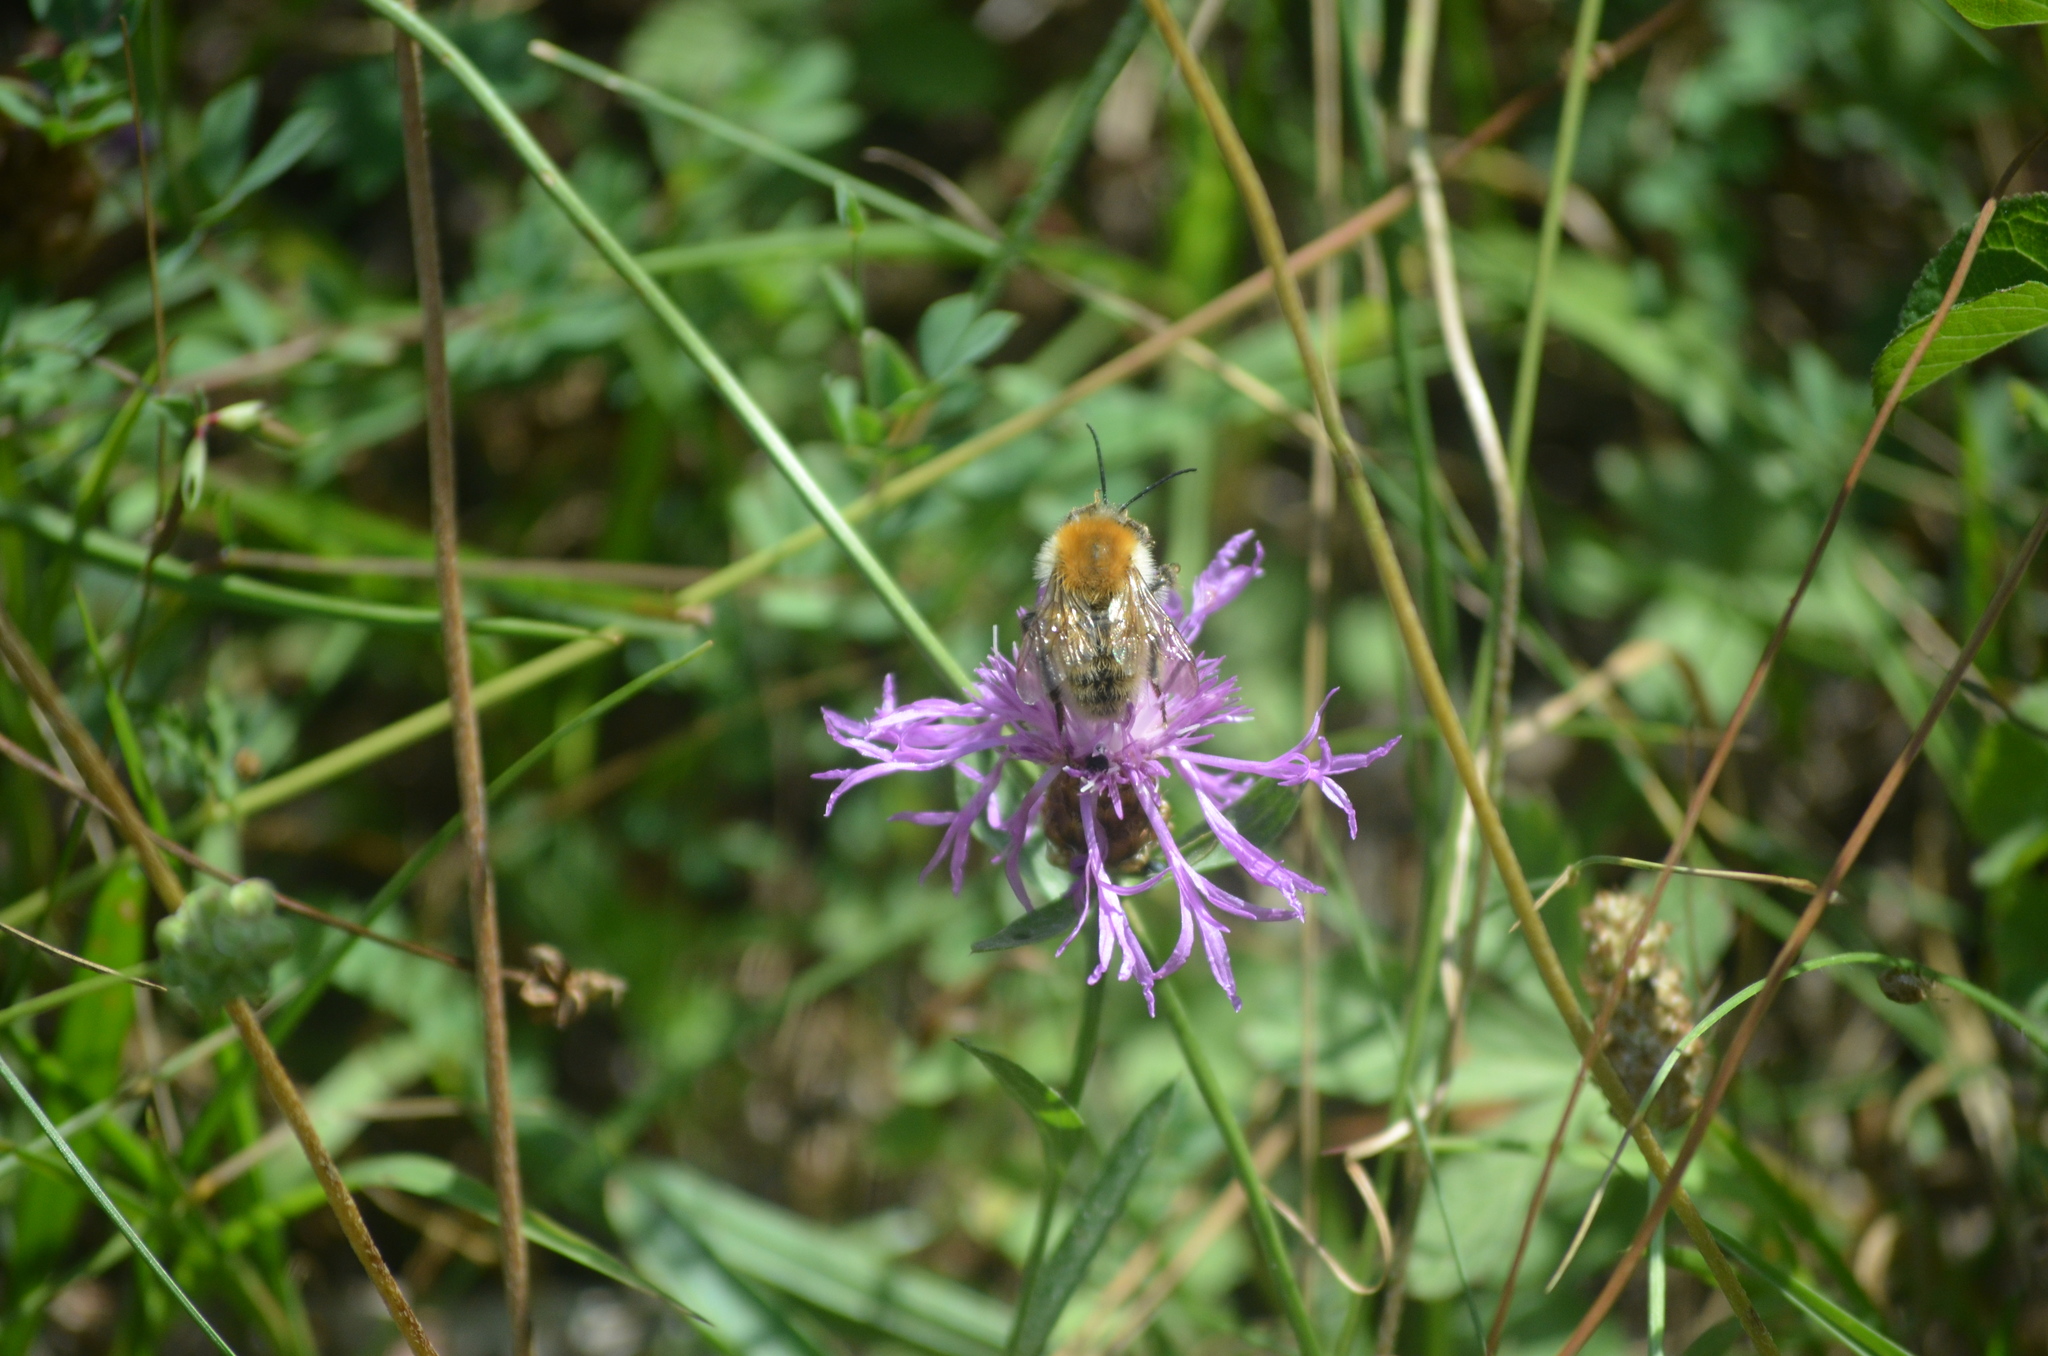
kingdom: Animalia
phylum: Arthropoda
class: Insecta
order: Hymenoptera
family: Apidae
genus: Bombus
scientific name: Bombus humilis
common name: Brown-banded carder-bee
